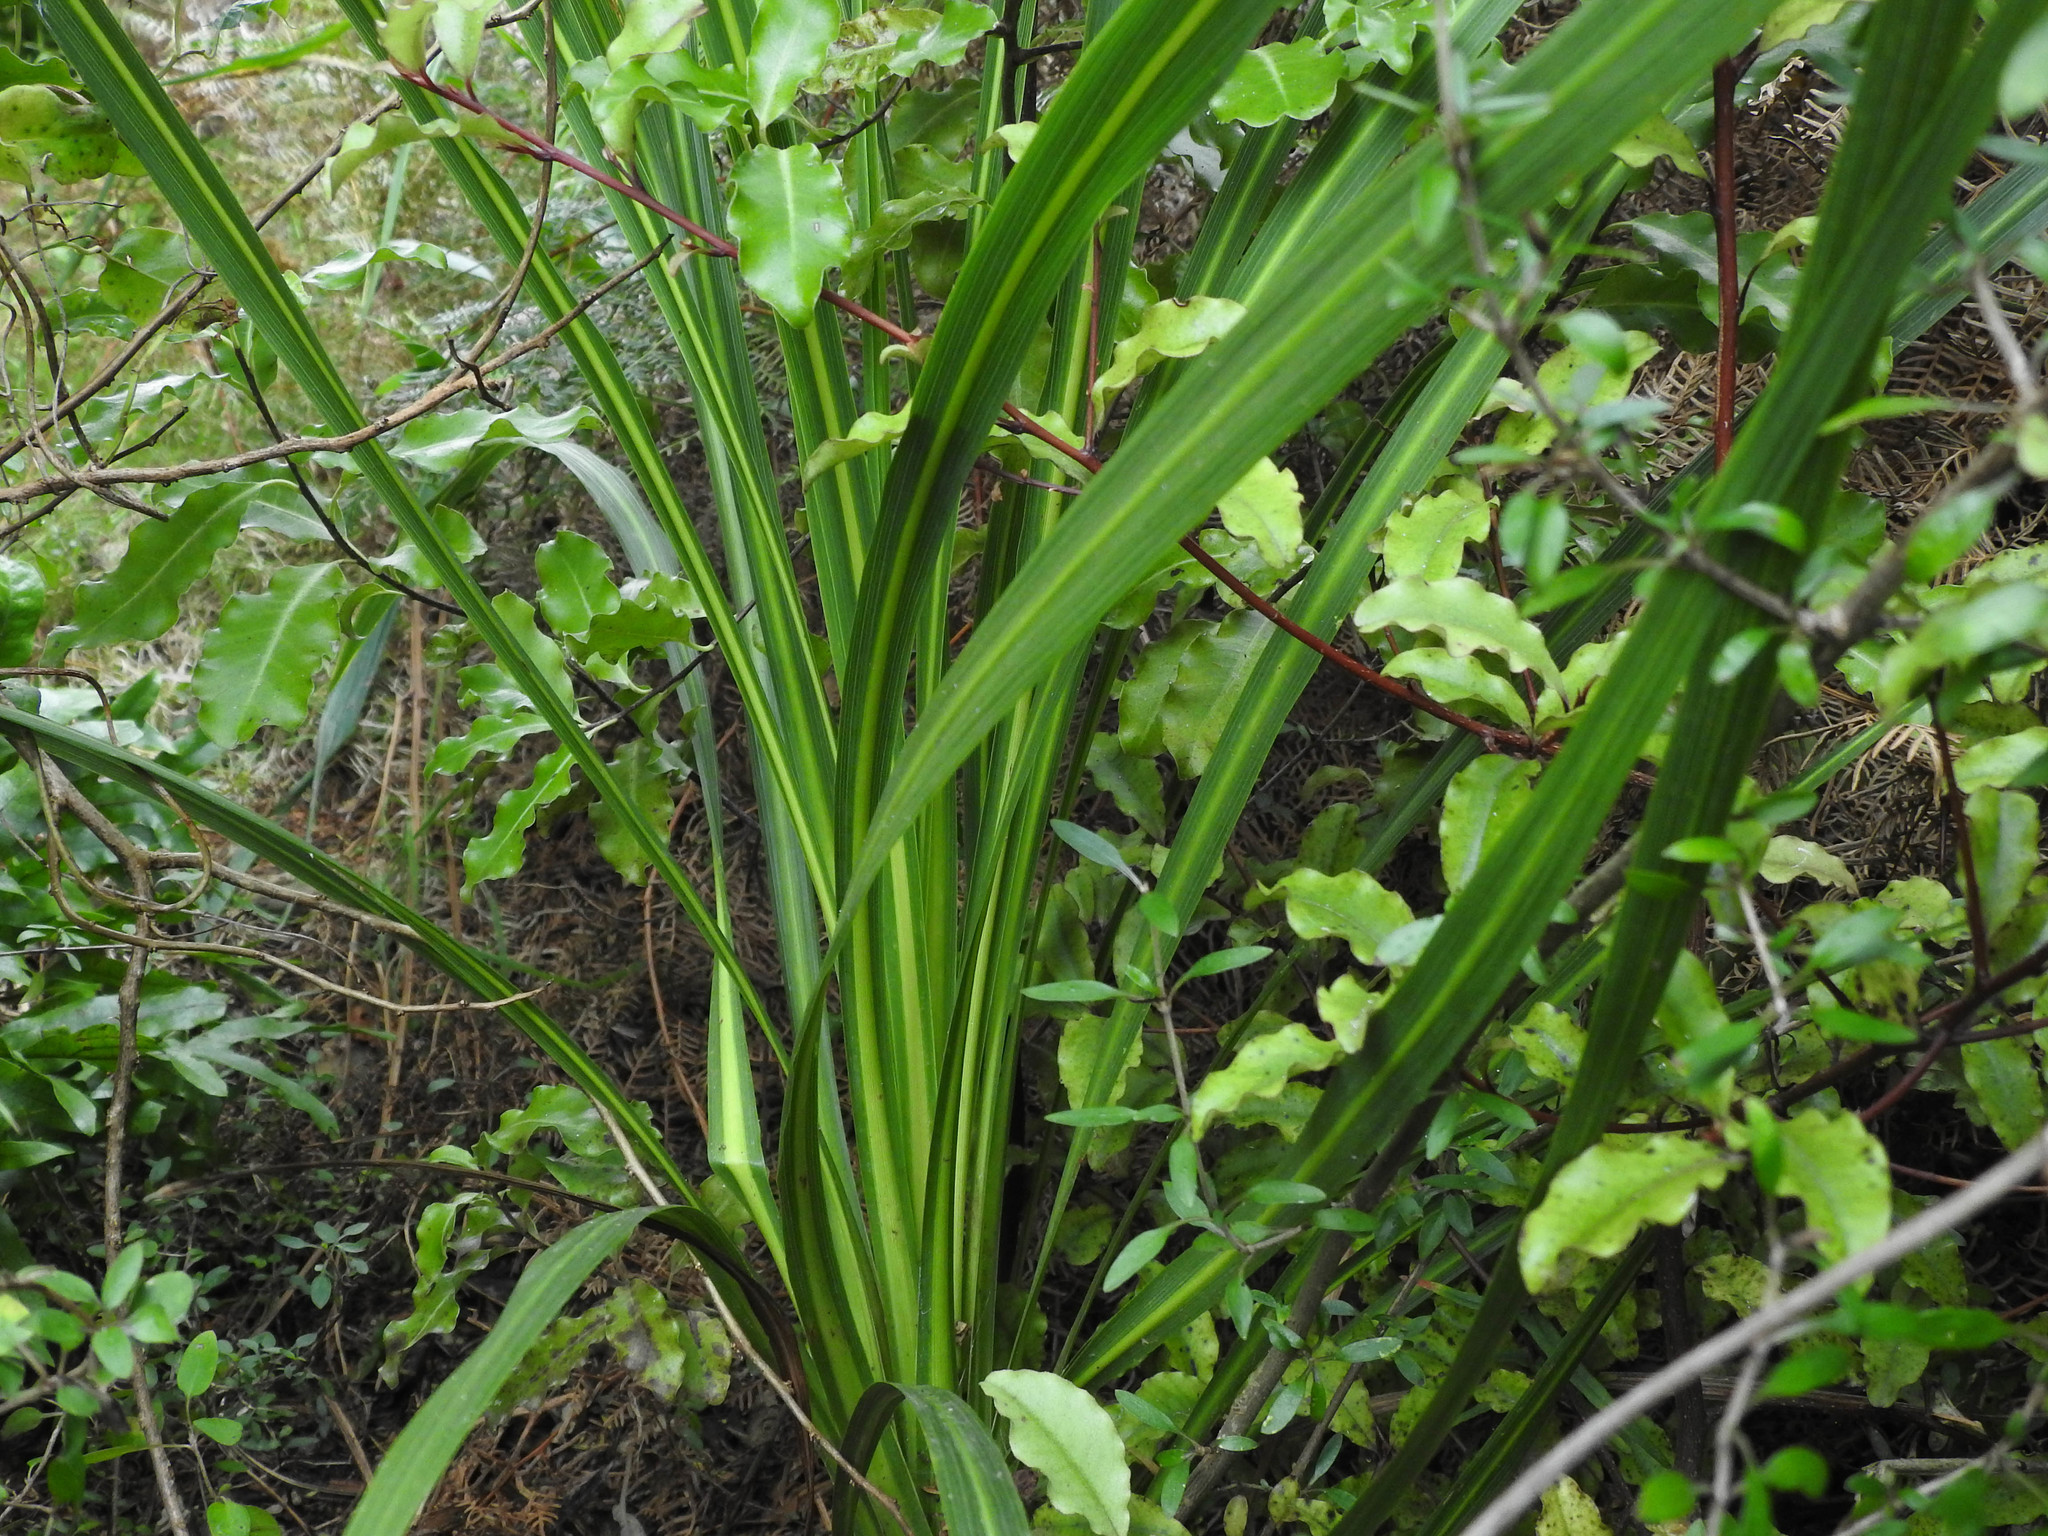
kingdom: Plantae
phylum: Tracheophyta
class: Liliopsida
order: Asparagales
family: Asparagaceae
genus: Cordyline
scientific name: Cordyline australis
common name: Cabbage-palm
